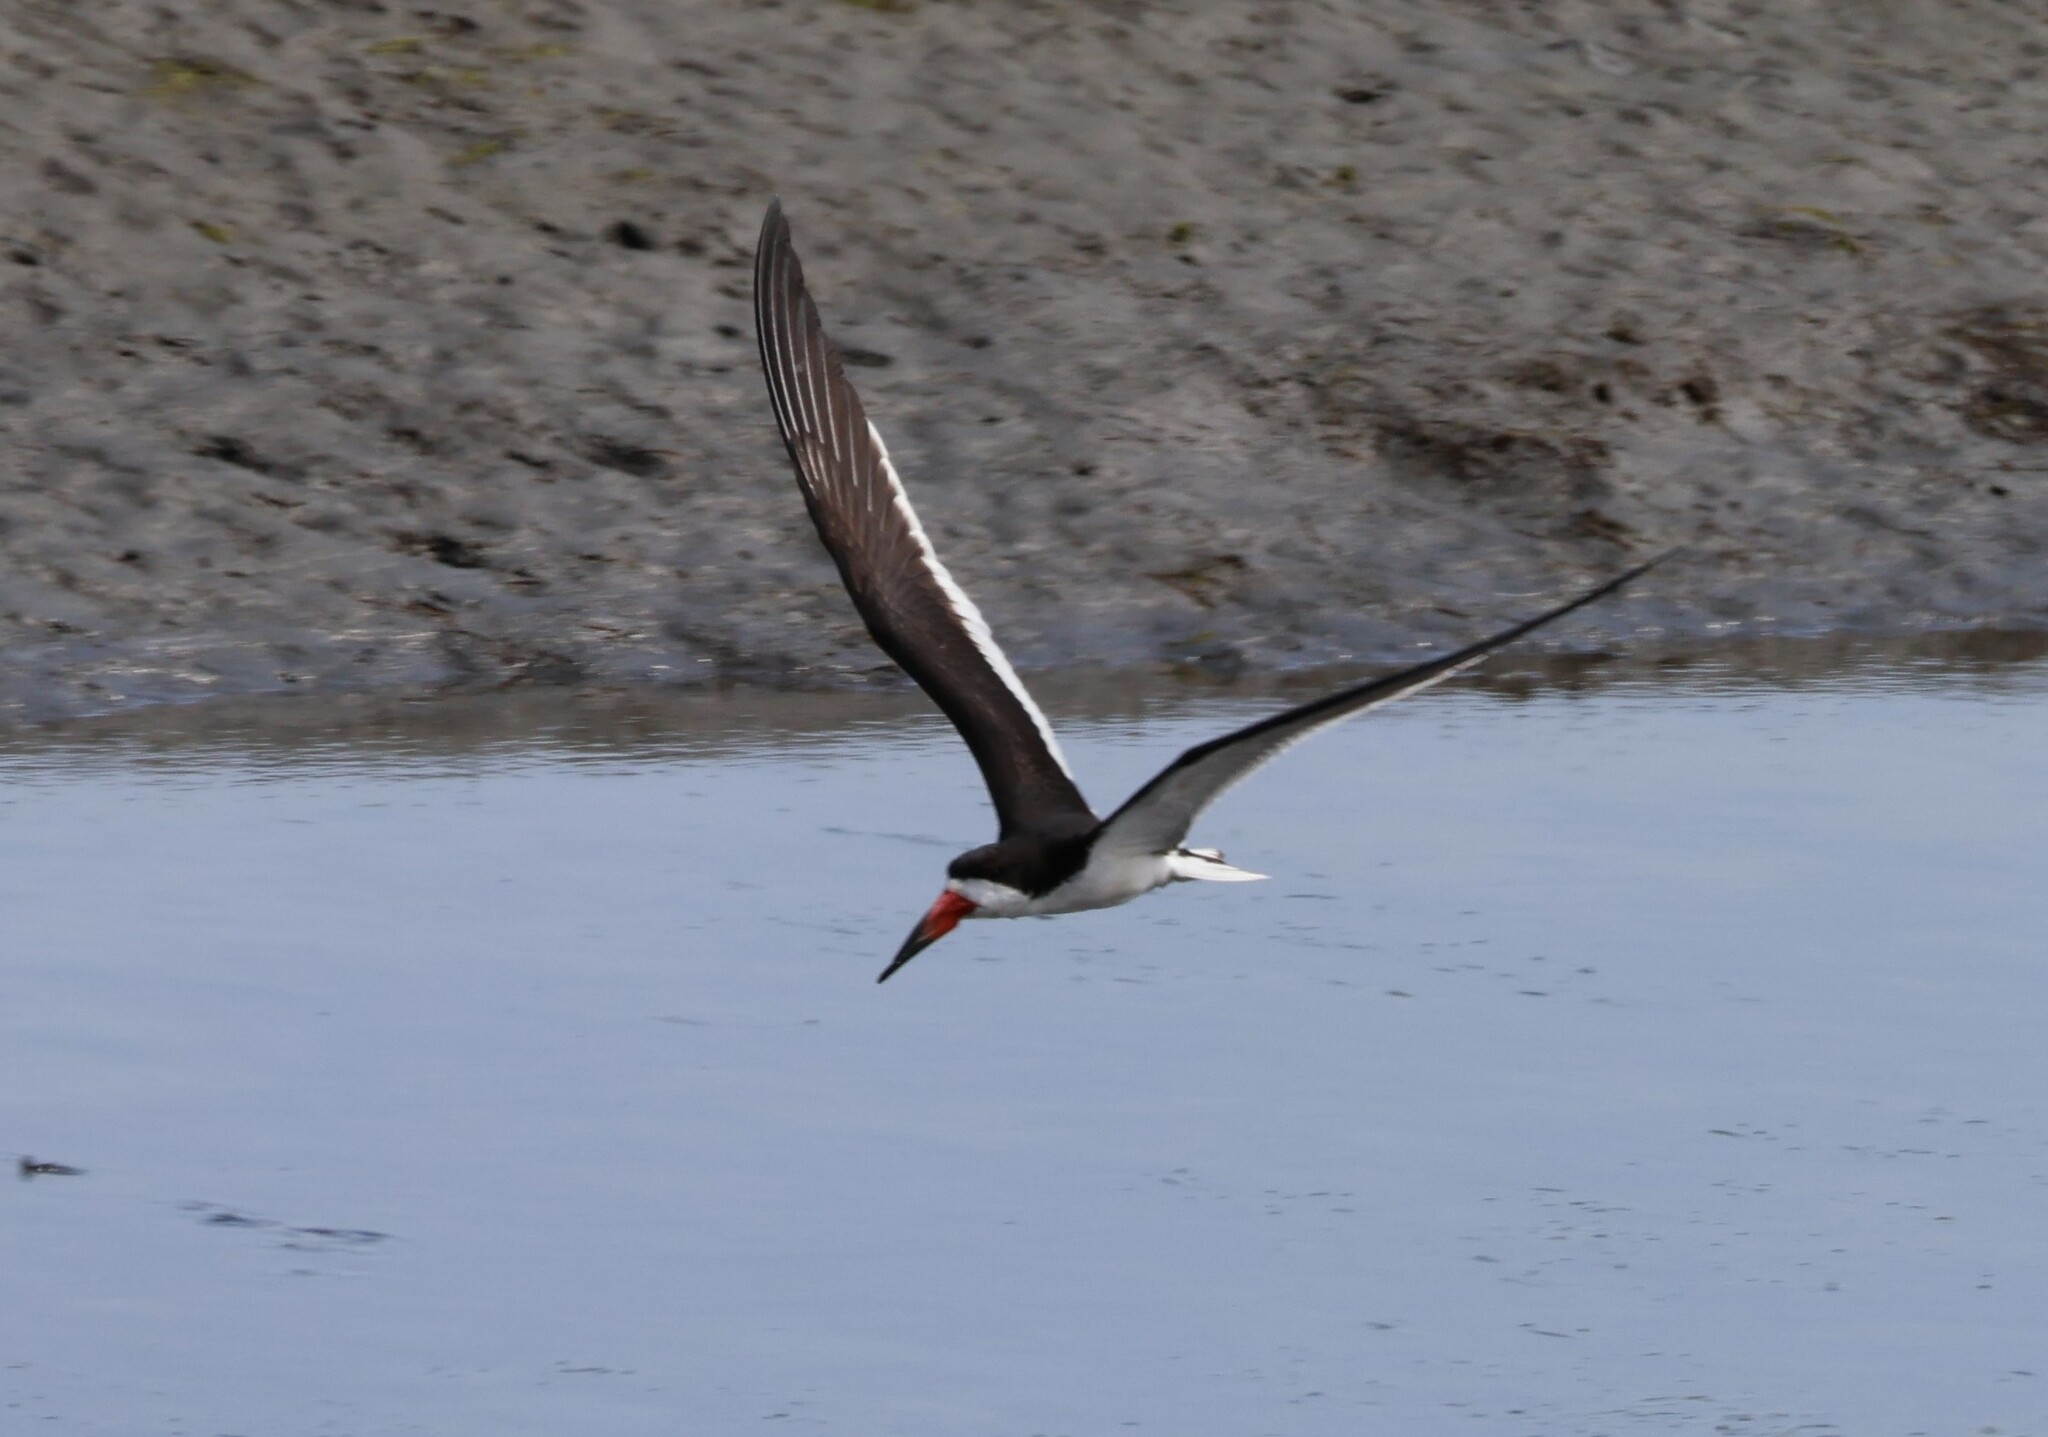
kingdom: Animalia
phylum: Chordata
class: Aves
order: Charadriiformes
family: Laridae
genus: Rynchops
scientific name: Rynchops niger
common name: Black skimmer
